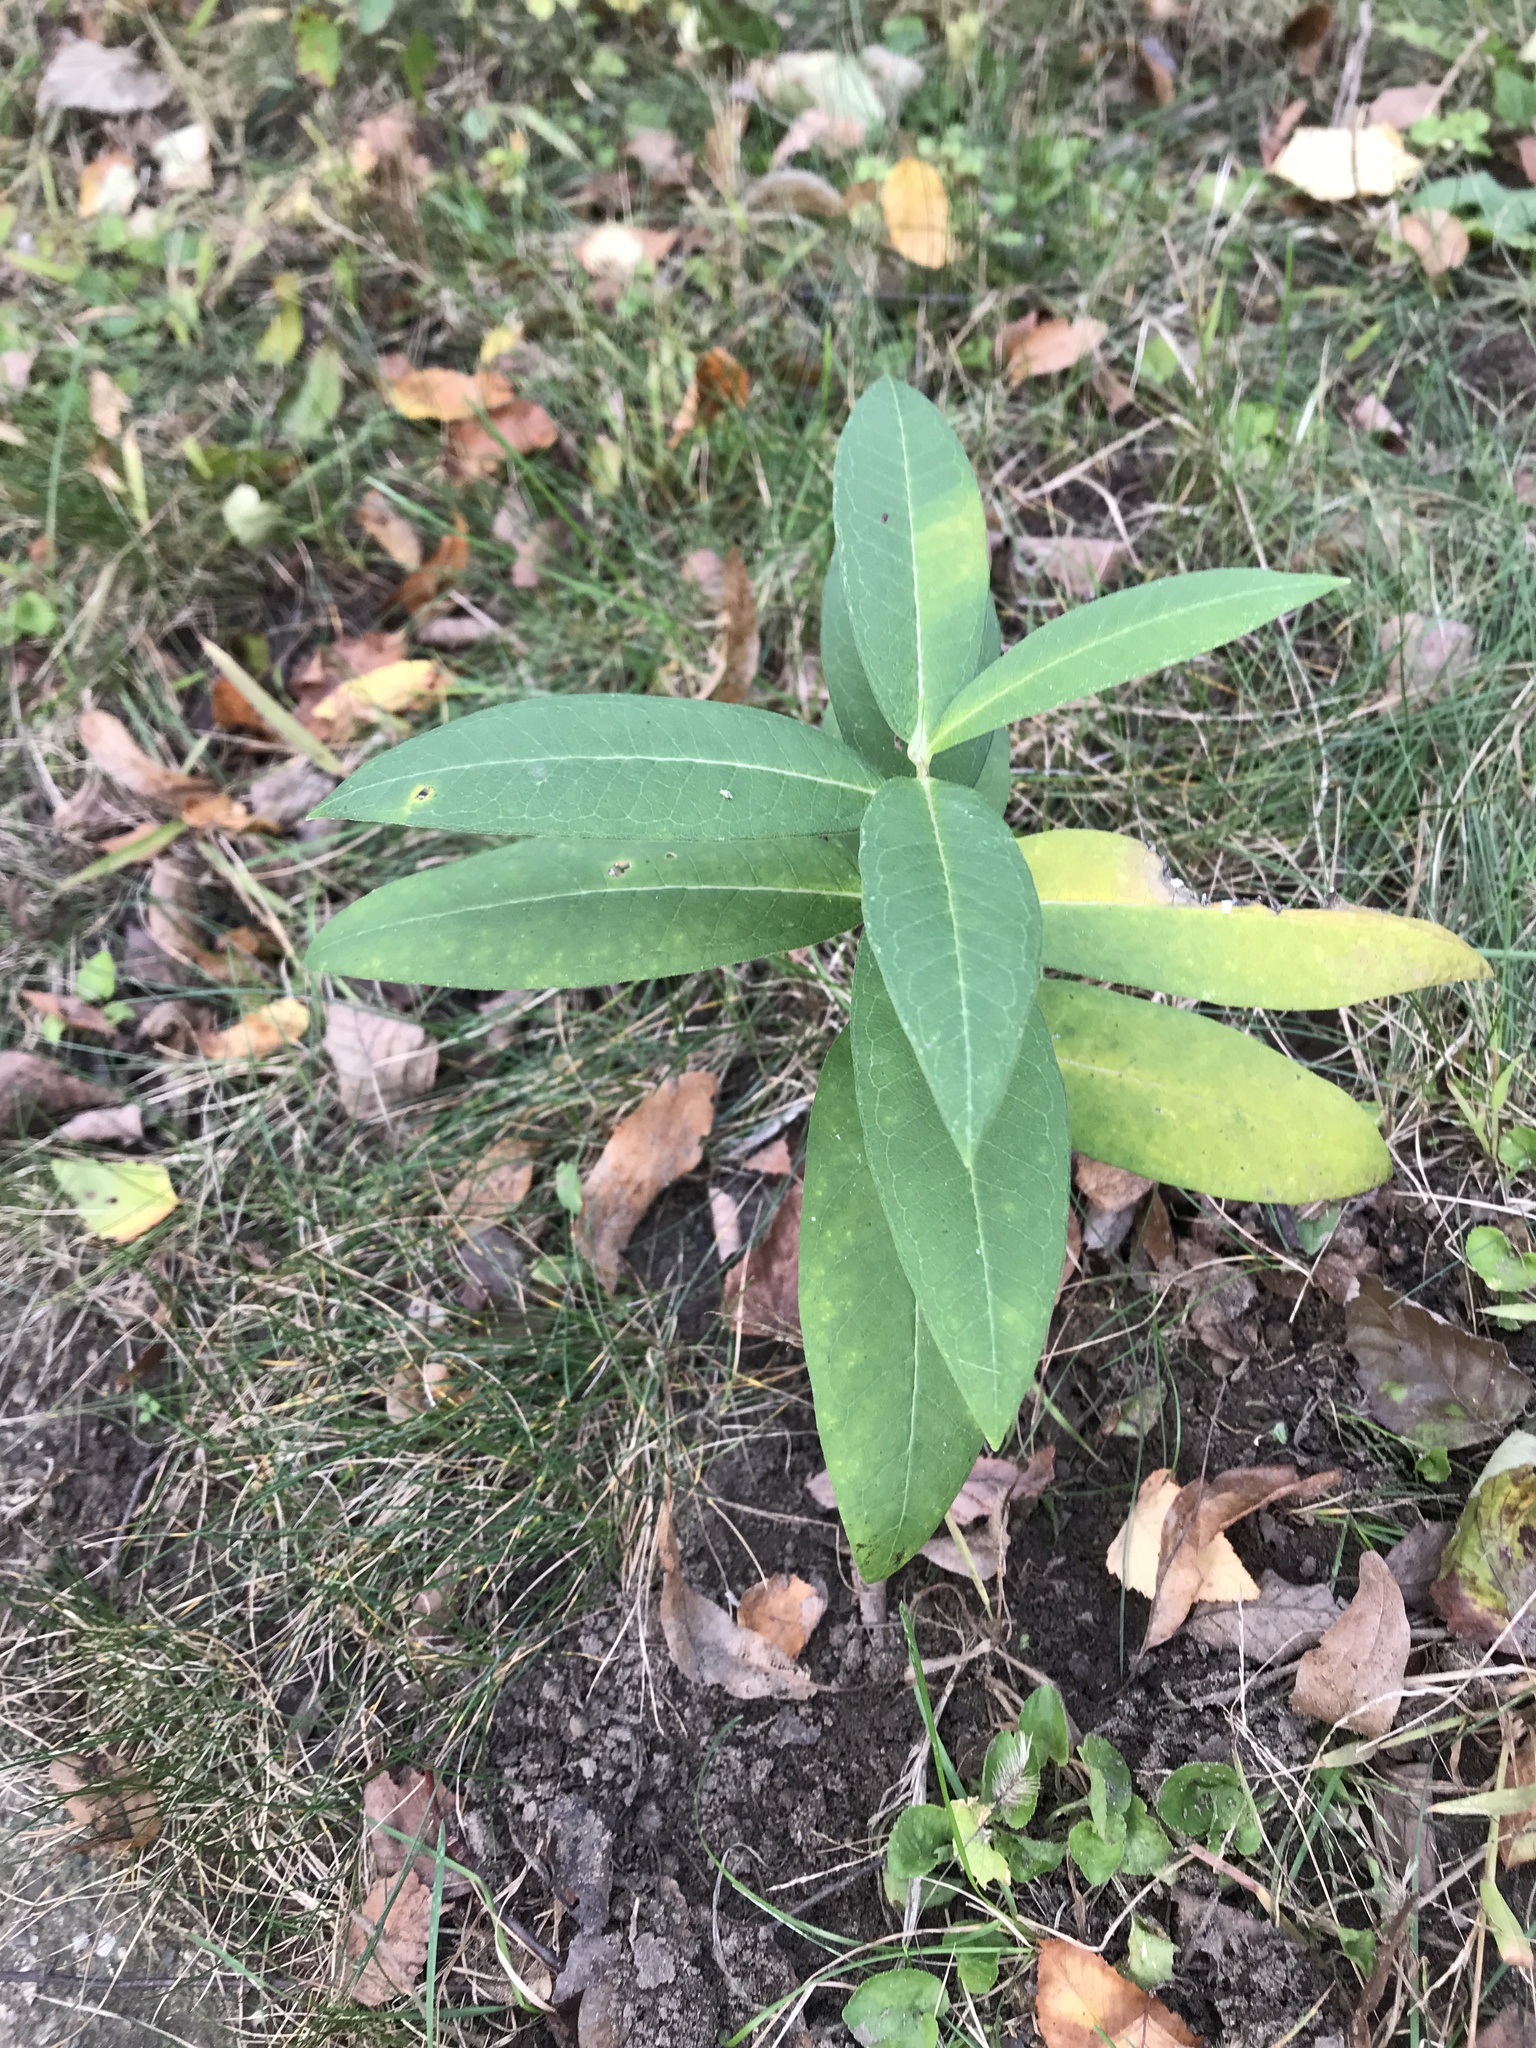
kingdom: Plantae
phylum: Tracheophyta
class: Magnoliopsida
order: Gentianales
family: Apocynaceae
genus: Asclepias
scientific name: Asclepias syriaca
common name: Common milkweed
